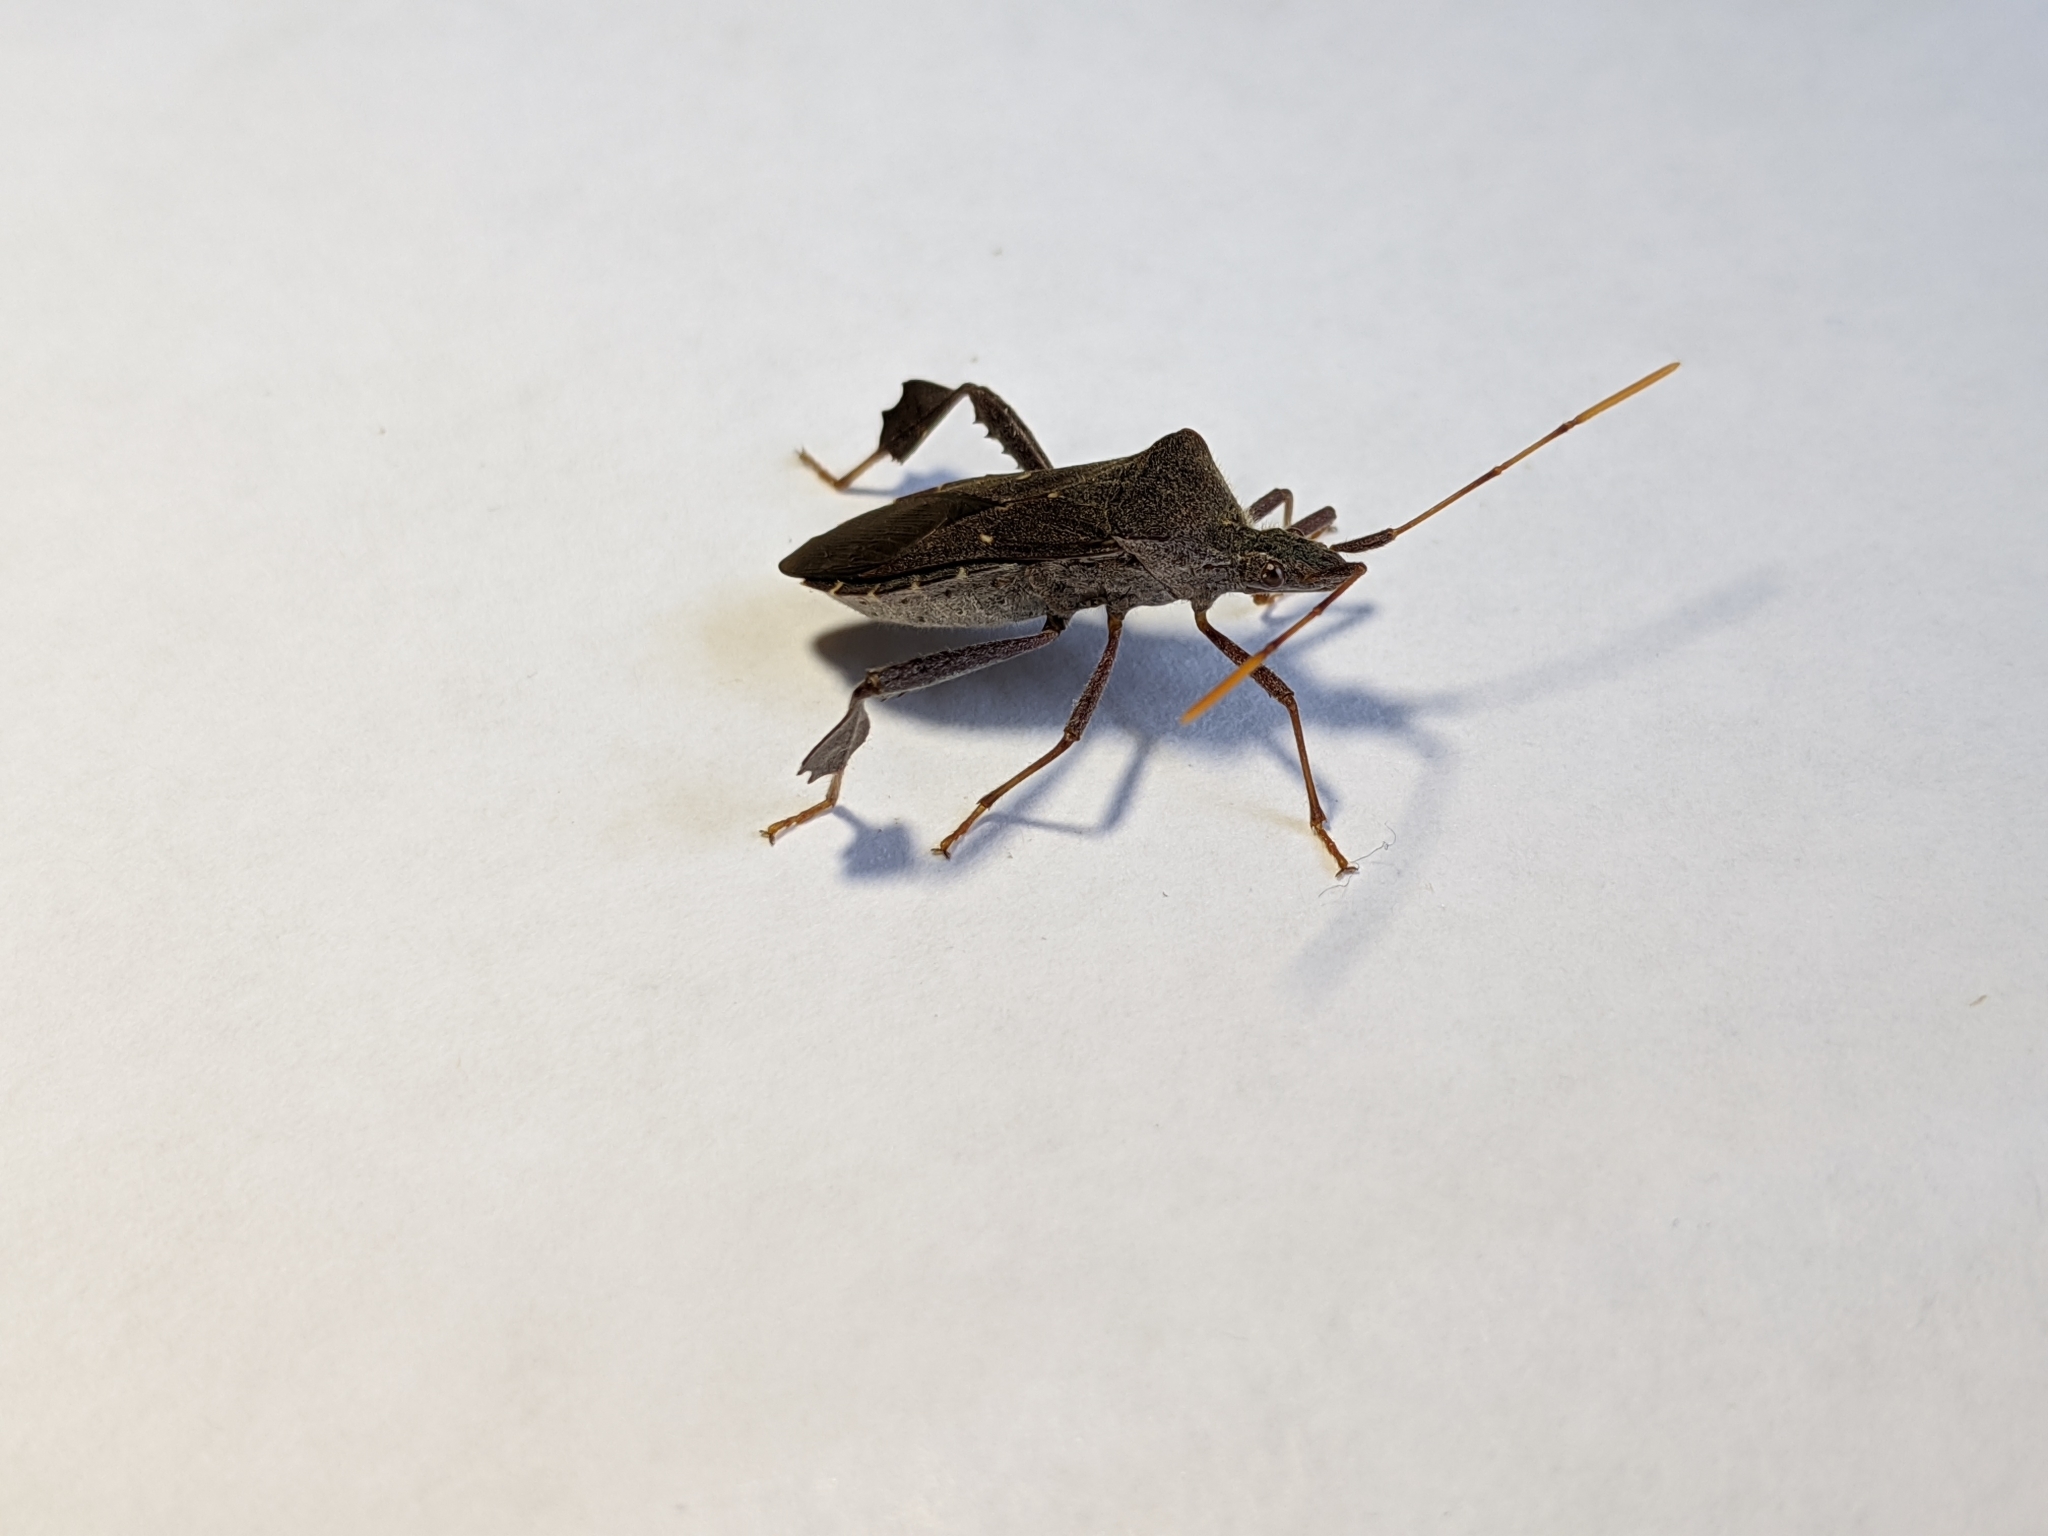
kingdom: Animalia
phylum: Arthropoda
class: Insecta
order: Hemiptera
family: Coreidae
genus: Leptoglossus
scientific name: Leptoglossus oppositus
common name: Northern leaf-footed bug
